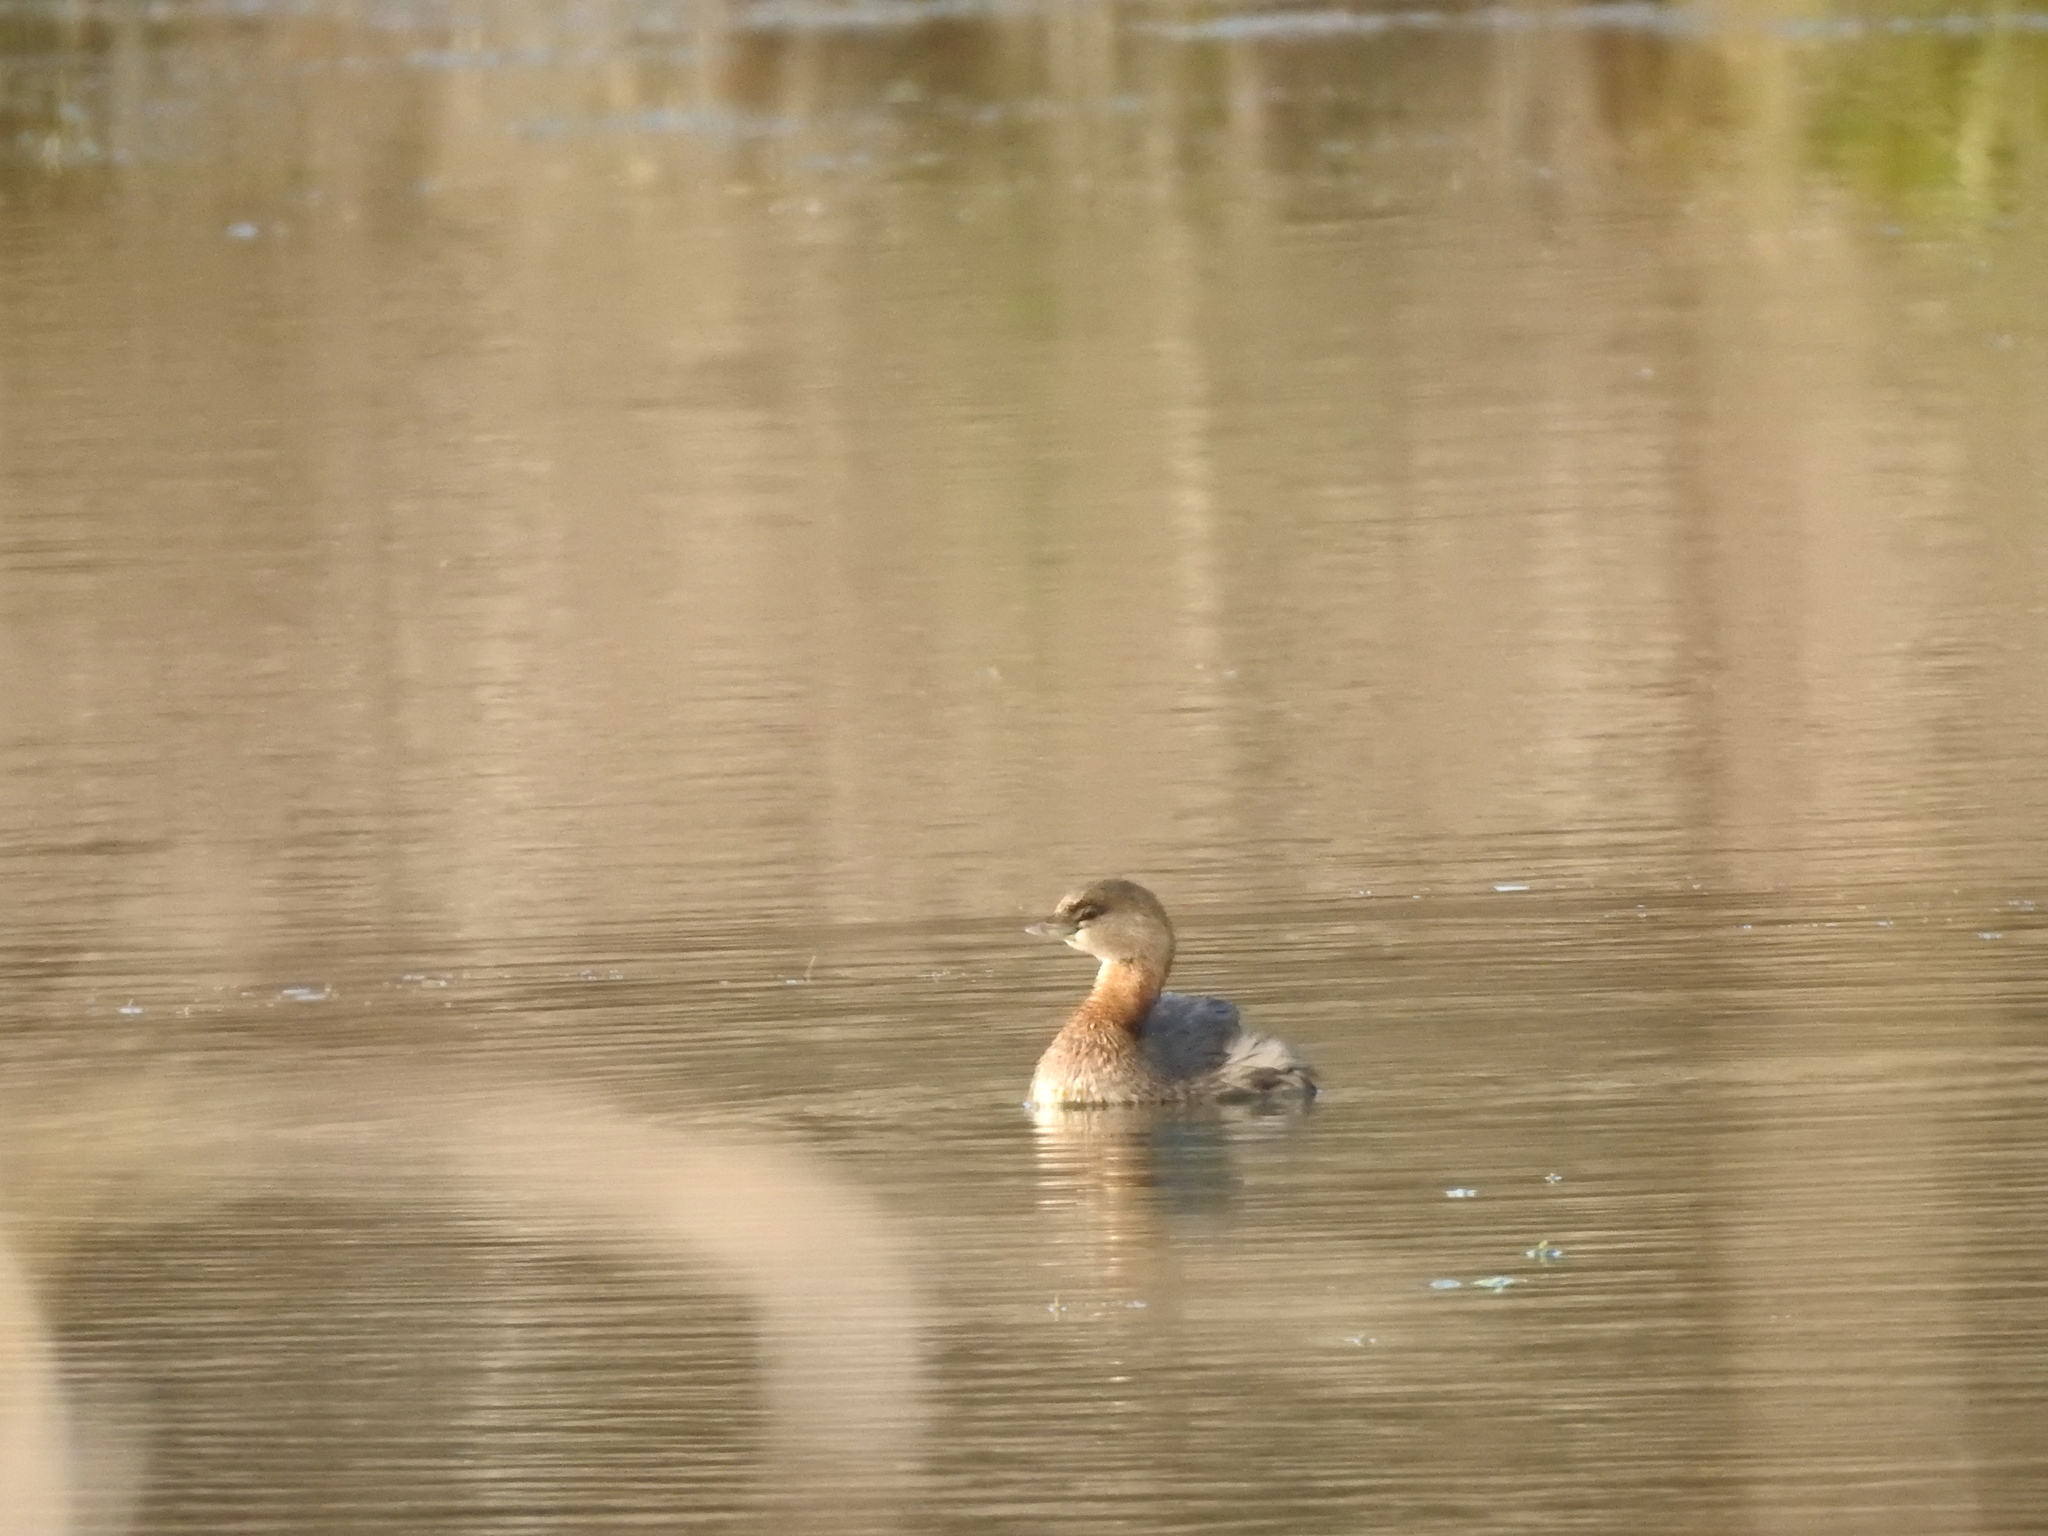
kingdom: Animalia
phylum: Chordata
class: Aves
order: Podicipediformes
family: Podicipedidae
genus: Podilymbus
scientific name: Podilymbus podiceps
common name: Pied-billed grebe
